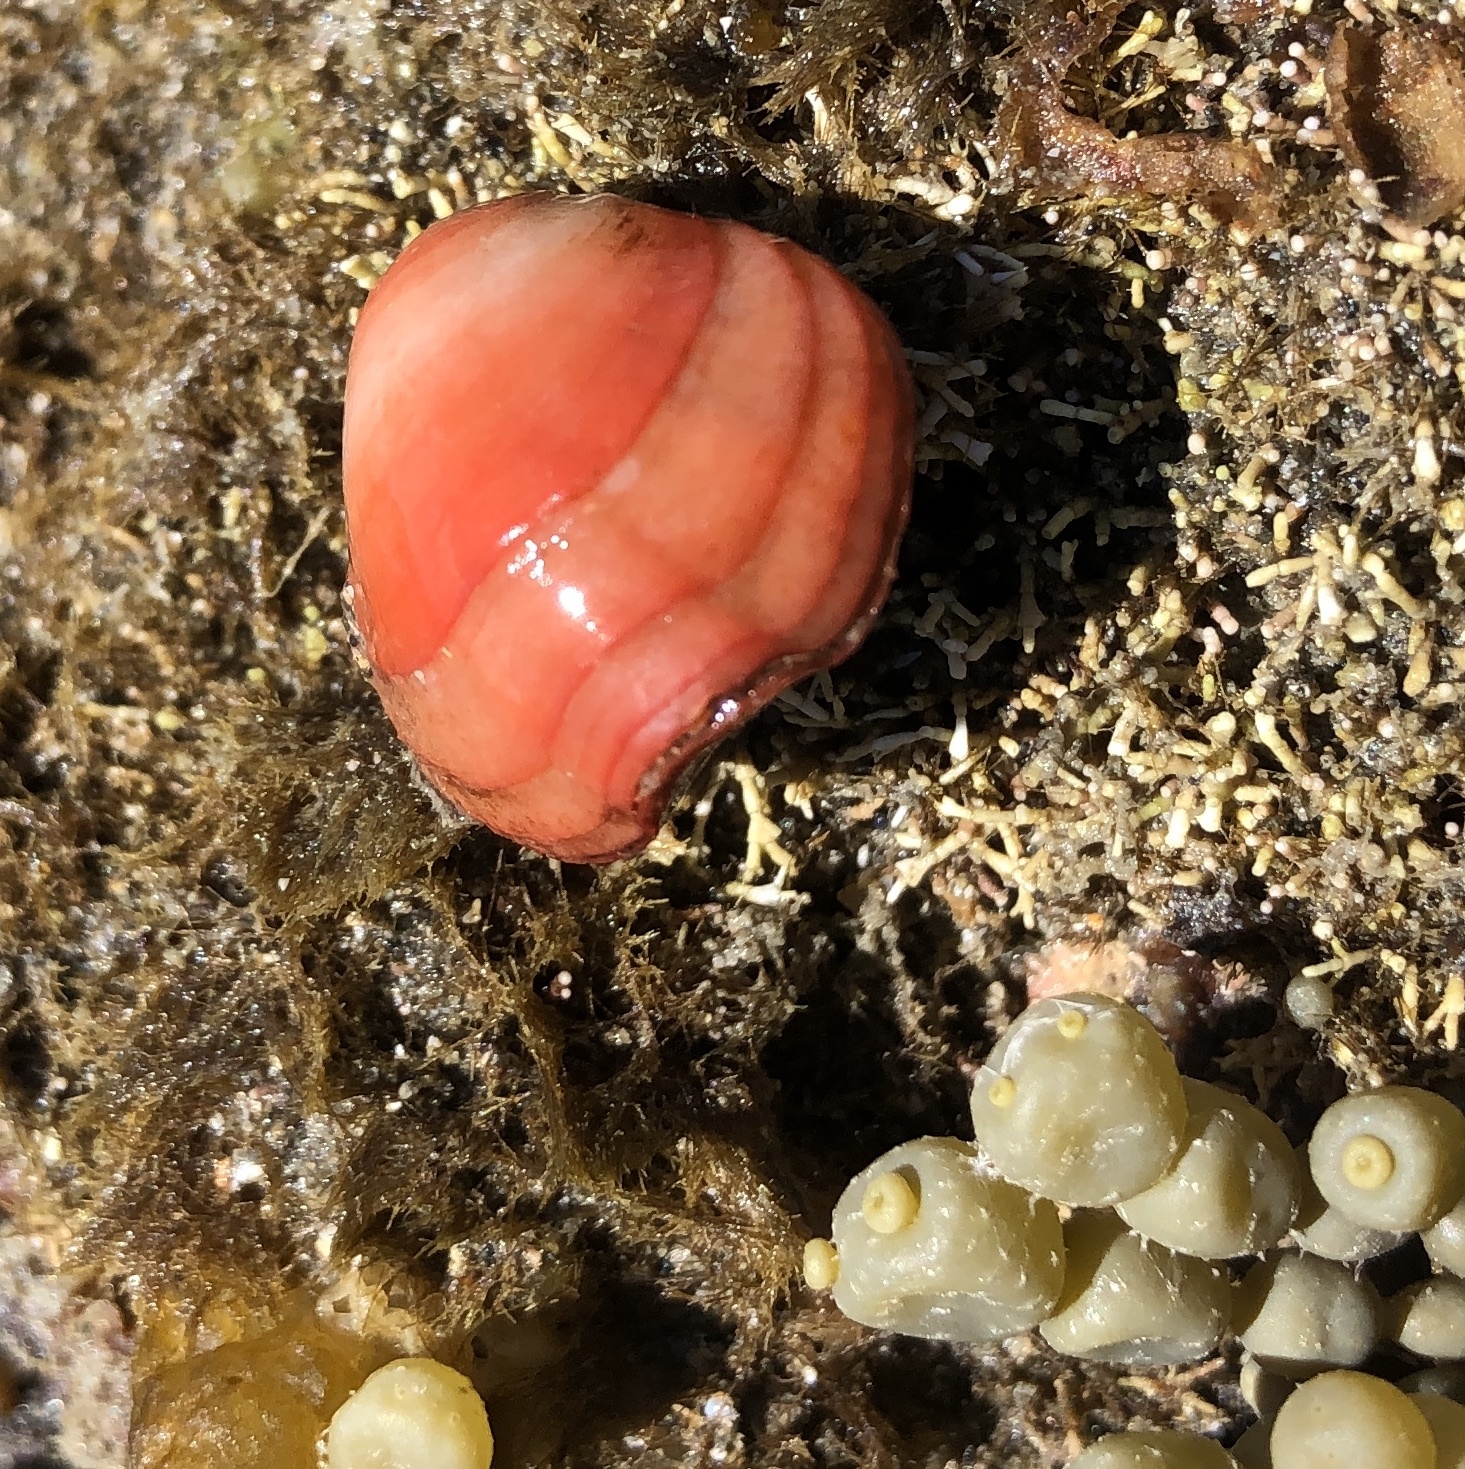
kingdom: Animalia
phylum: Brachiopoda
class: Rhynchonellata
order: Terebratulida
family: Terebratellidae
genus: Calloria
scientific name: Calloria inconspicua
